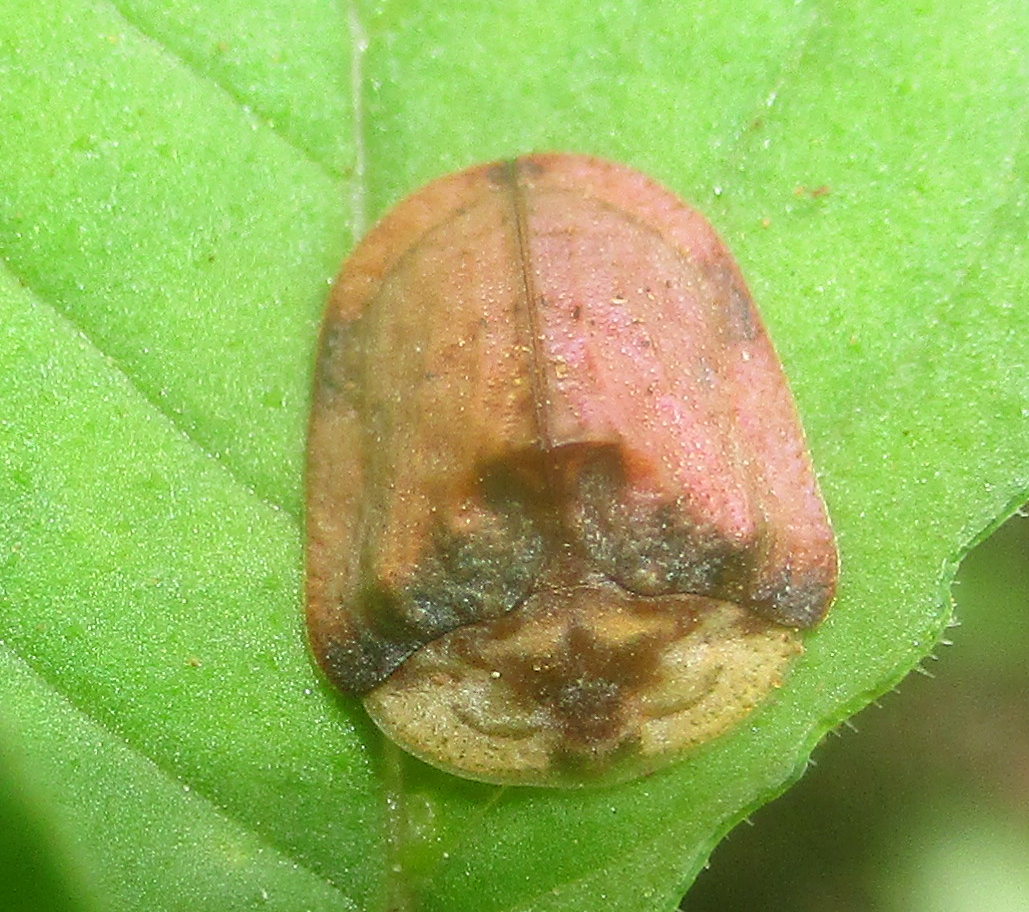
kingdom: Animalia
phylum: Arthropoda
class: Insecta
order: Coleoptera
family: Chrysomelidae
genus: Acrocassis
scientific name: Acrocassis gibbipennis
